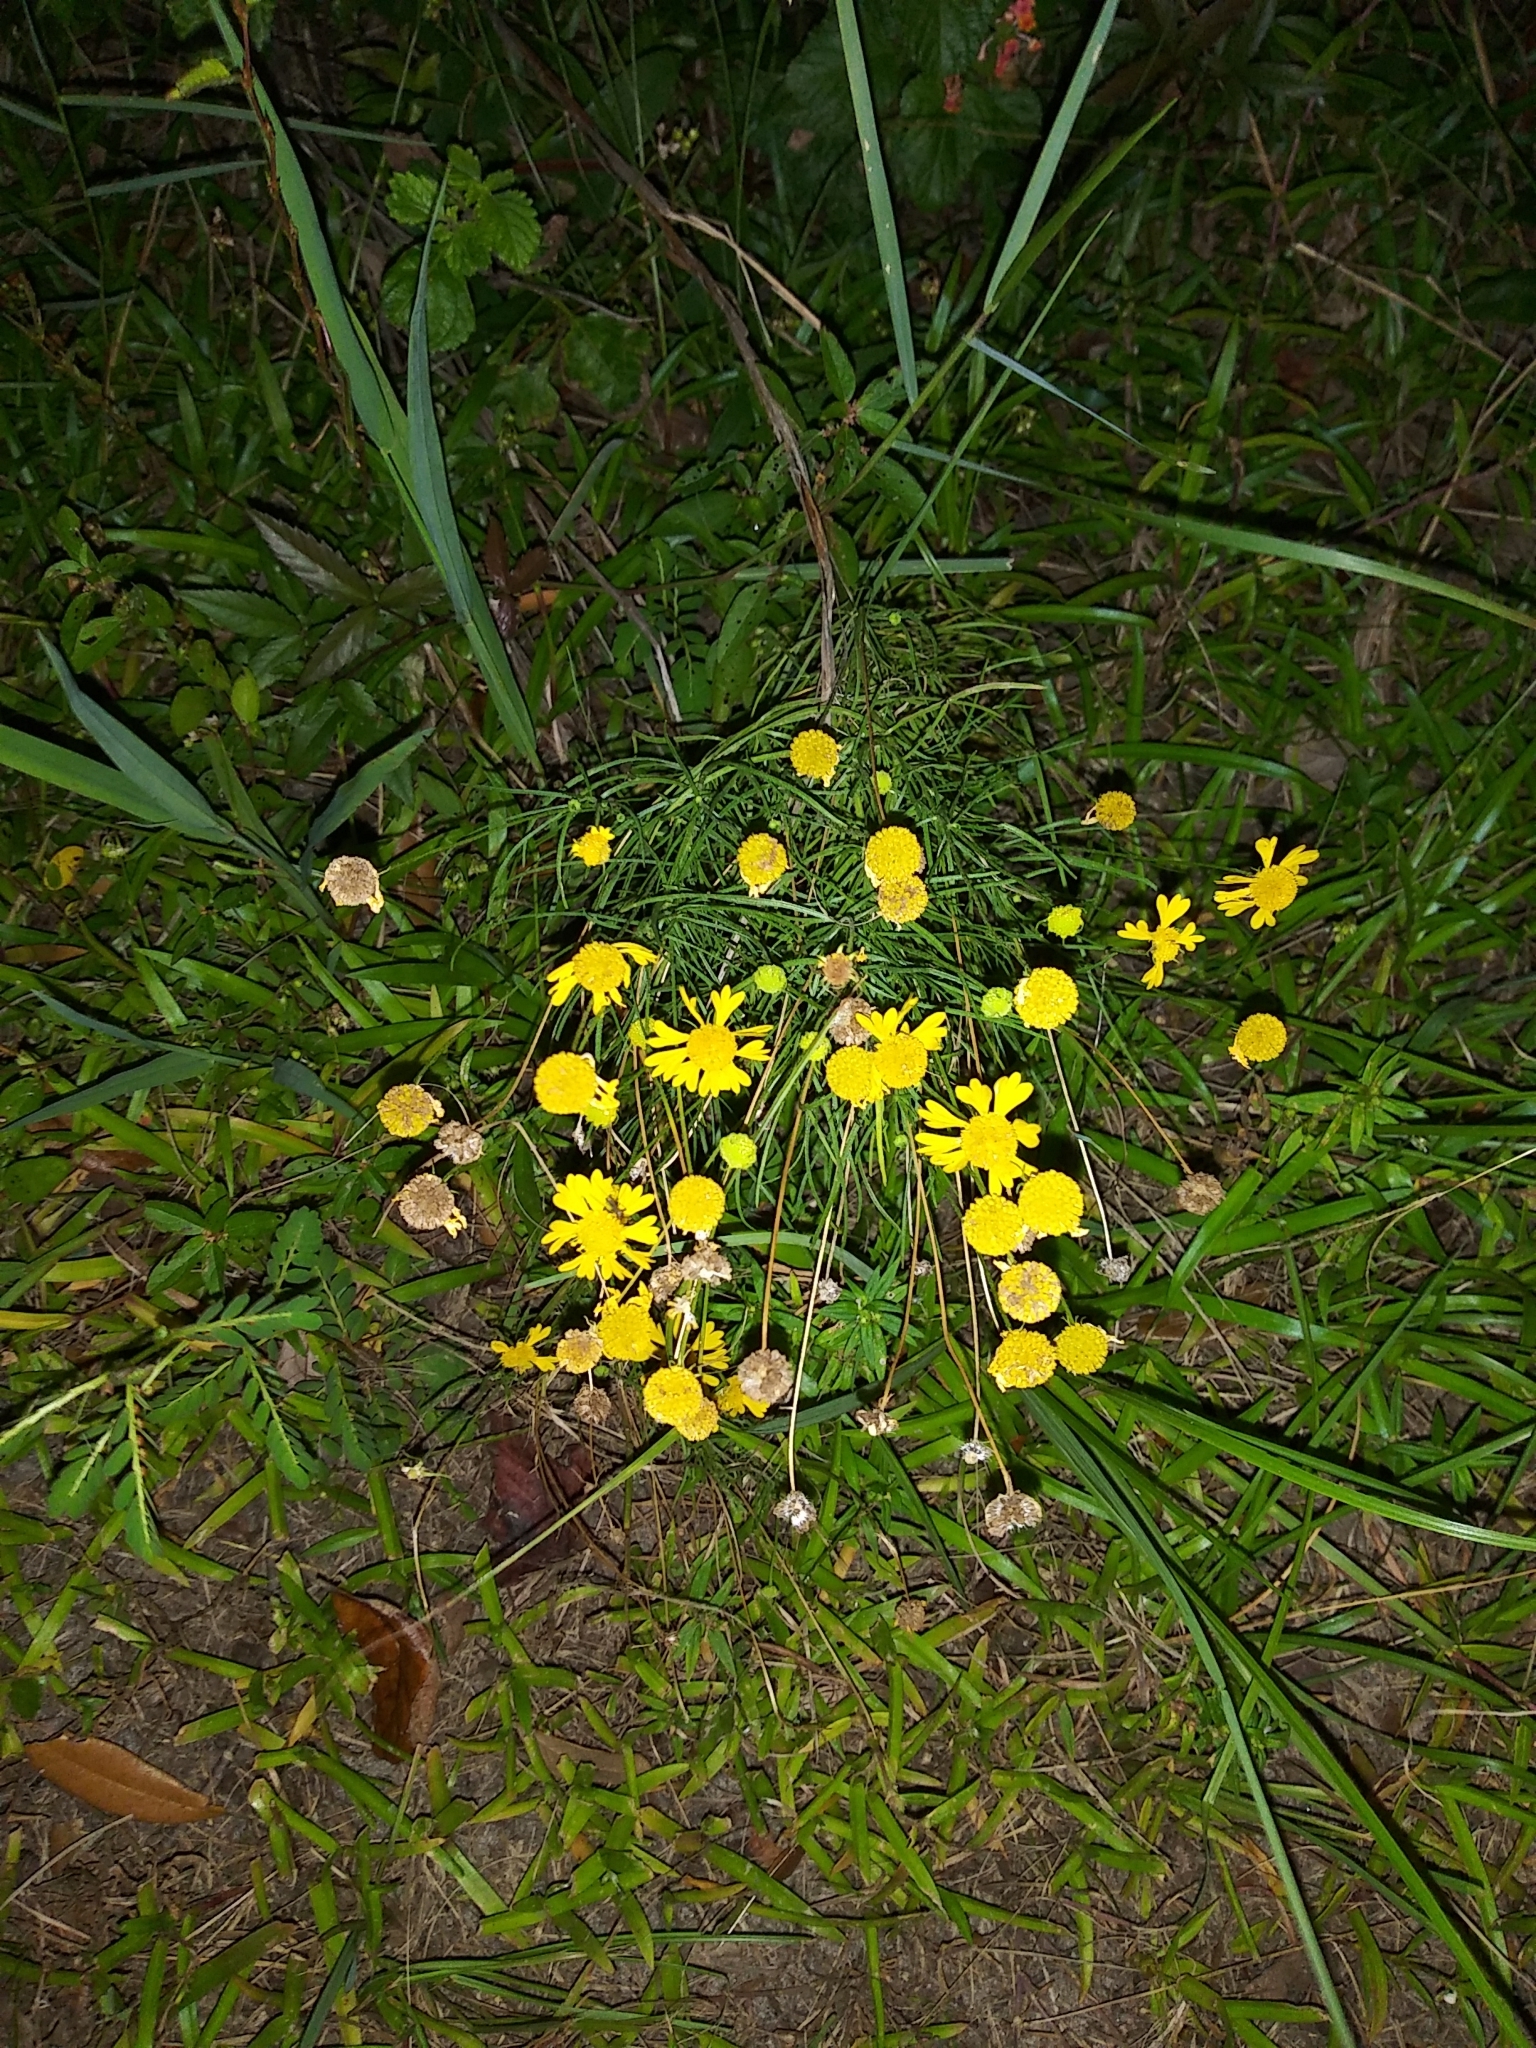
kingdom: Plantae
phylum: Tracheophyta
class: Magnoliopsida
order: Asterales
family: Asteraceae
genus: Helenium
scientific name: Helenium amarum
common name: Bitter sneezeweed
